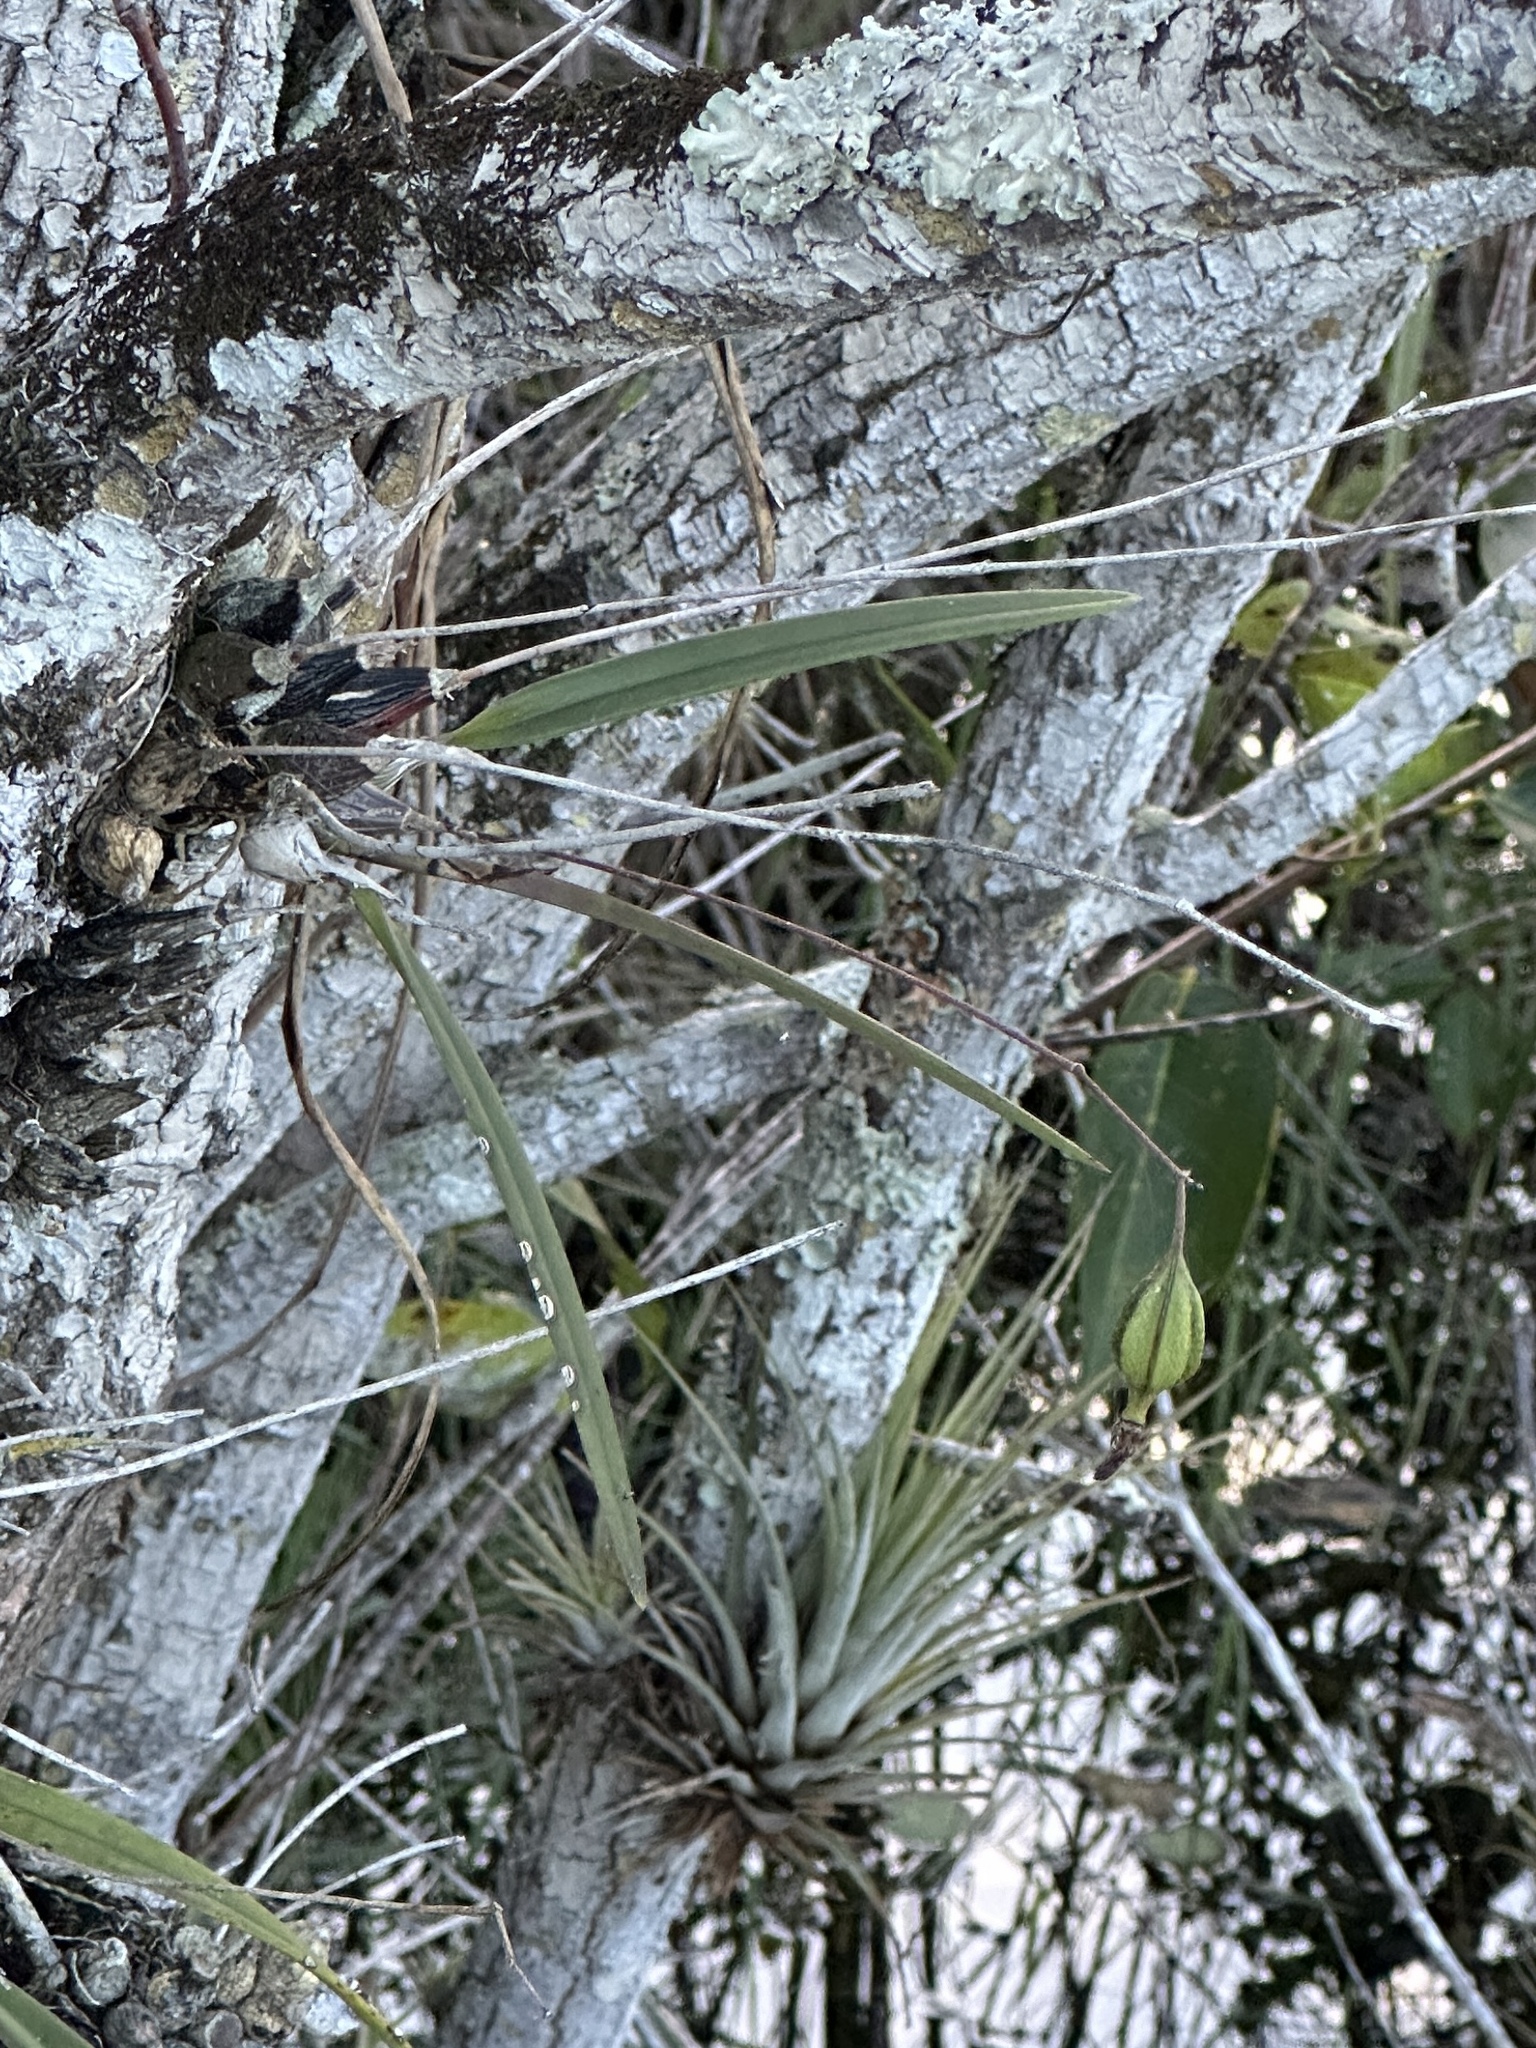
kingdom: Plantae
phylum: Tracheophyta
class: Liliopsida
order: Asparagales
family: Orchidaceae
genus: Encyclia
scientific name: Encyclia tampensis
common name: Florida butterfly orchid
